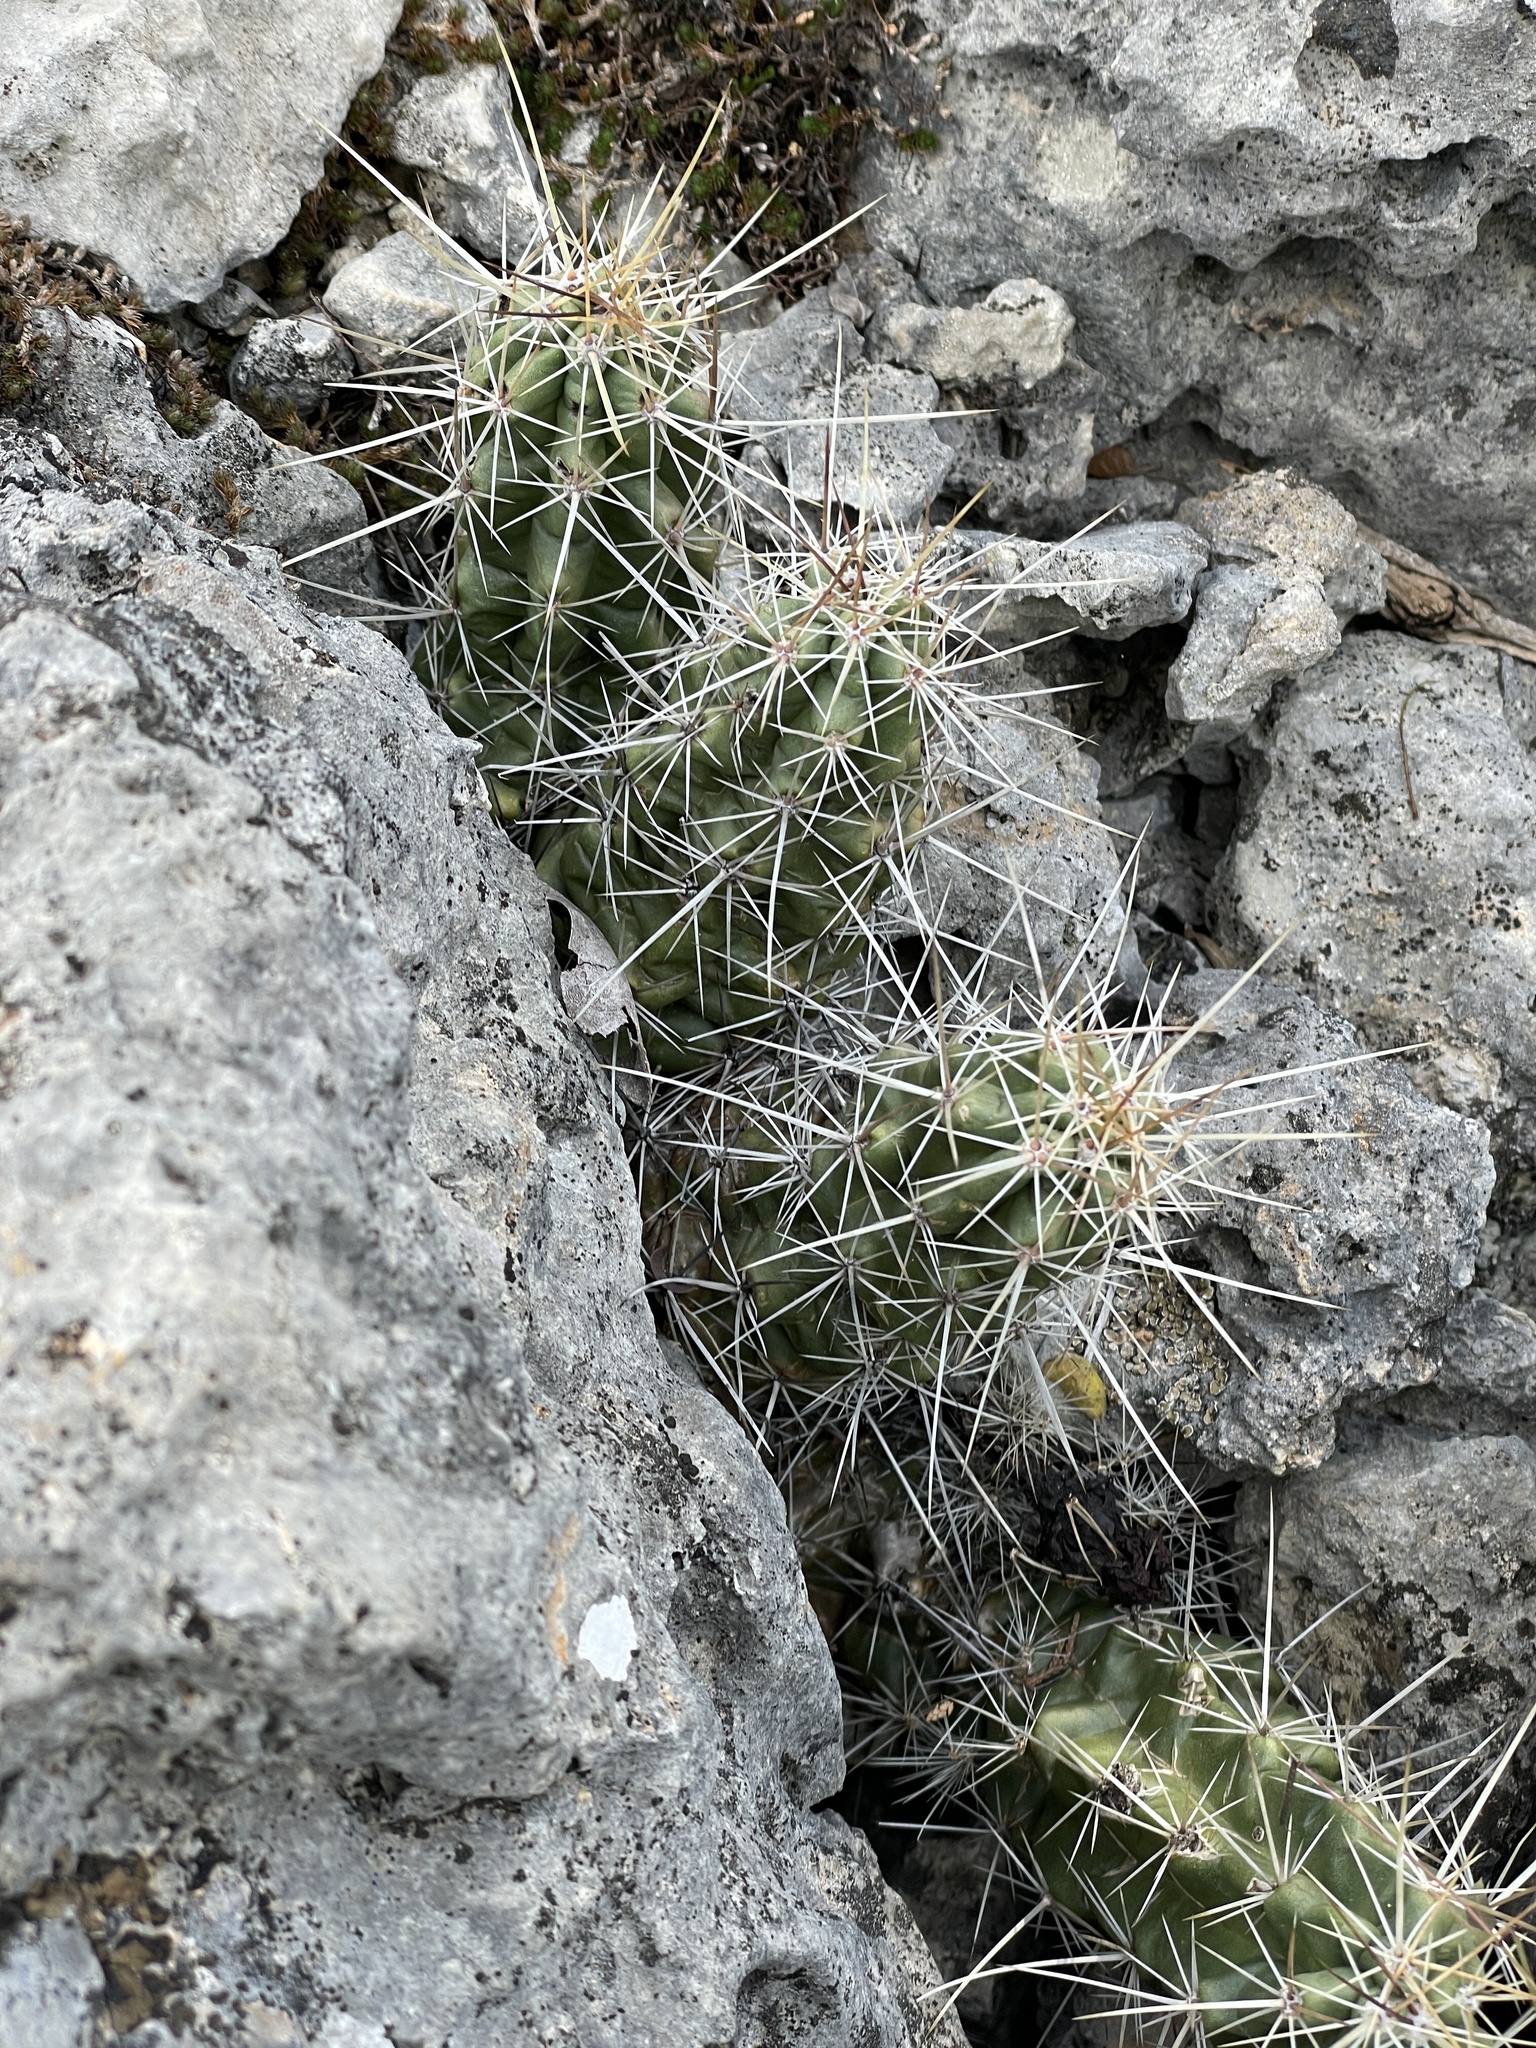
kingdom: Plantae
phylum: Tracheophyta
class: Magnoliopsida
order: Caryophyllales
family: Cactaceae
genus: Echinocereus
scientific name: Echinocereus enneacanthus
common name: Pitaya
